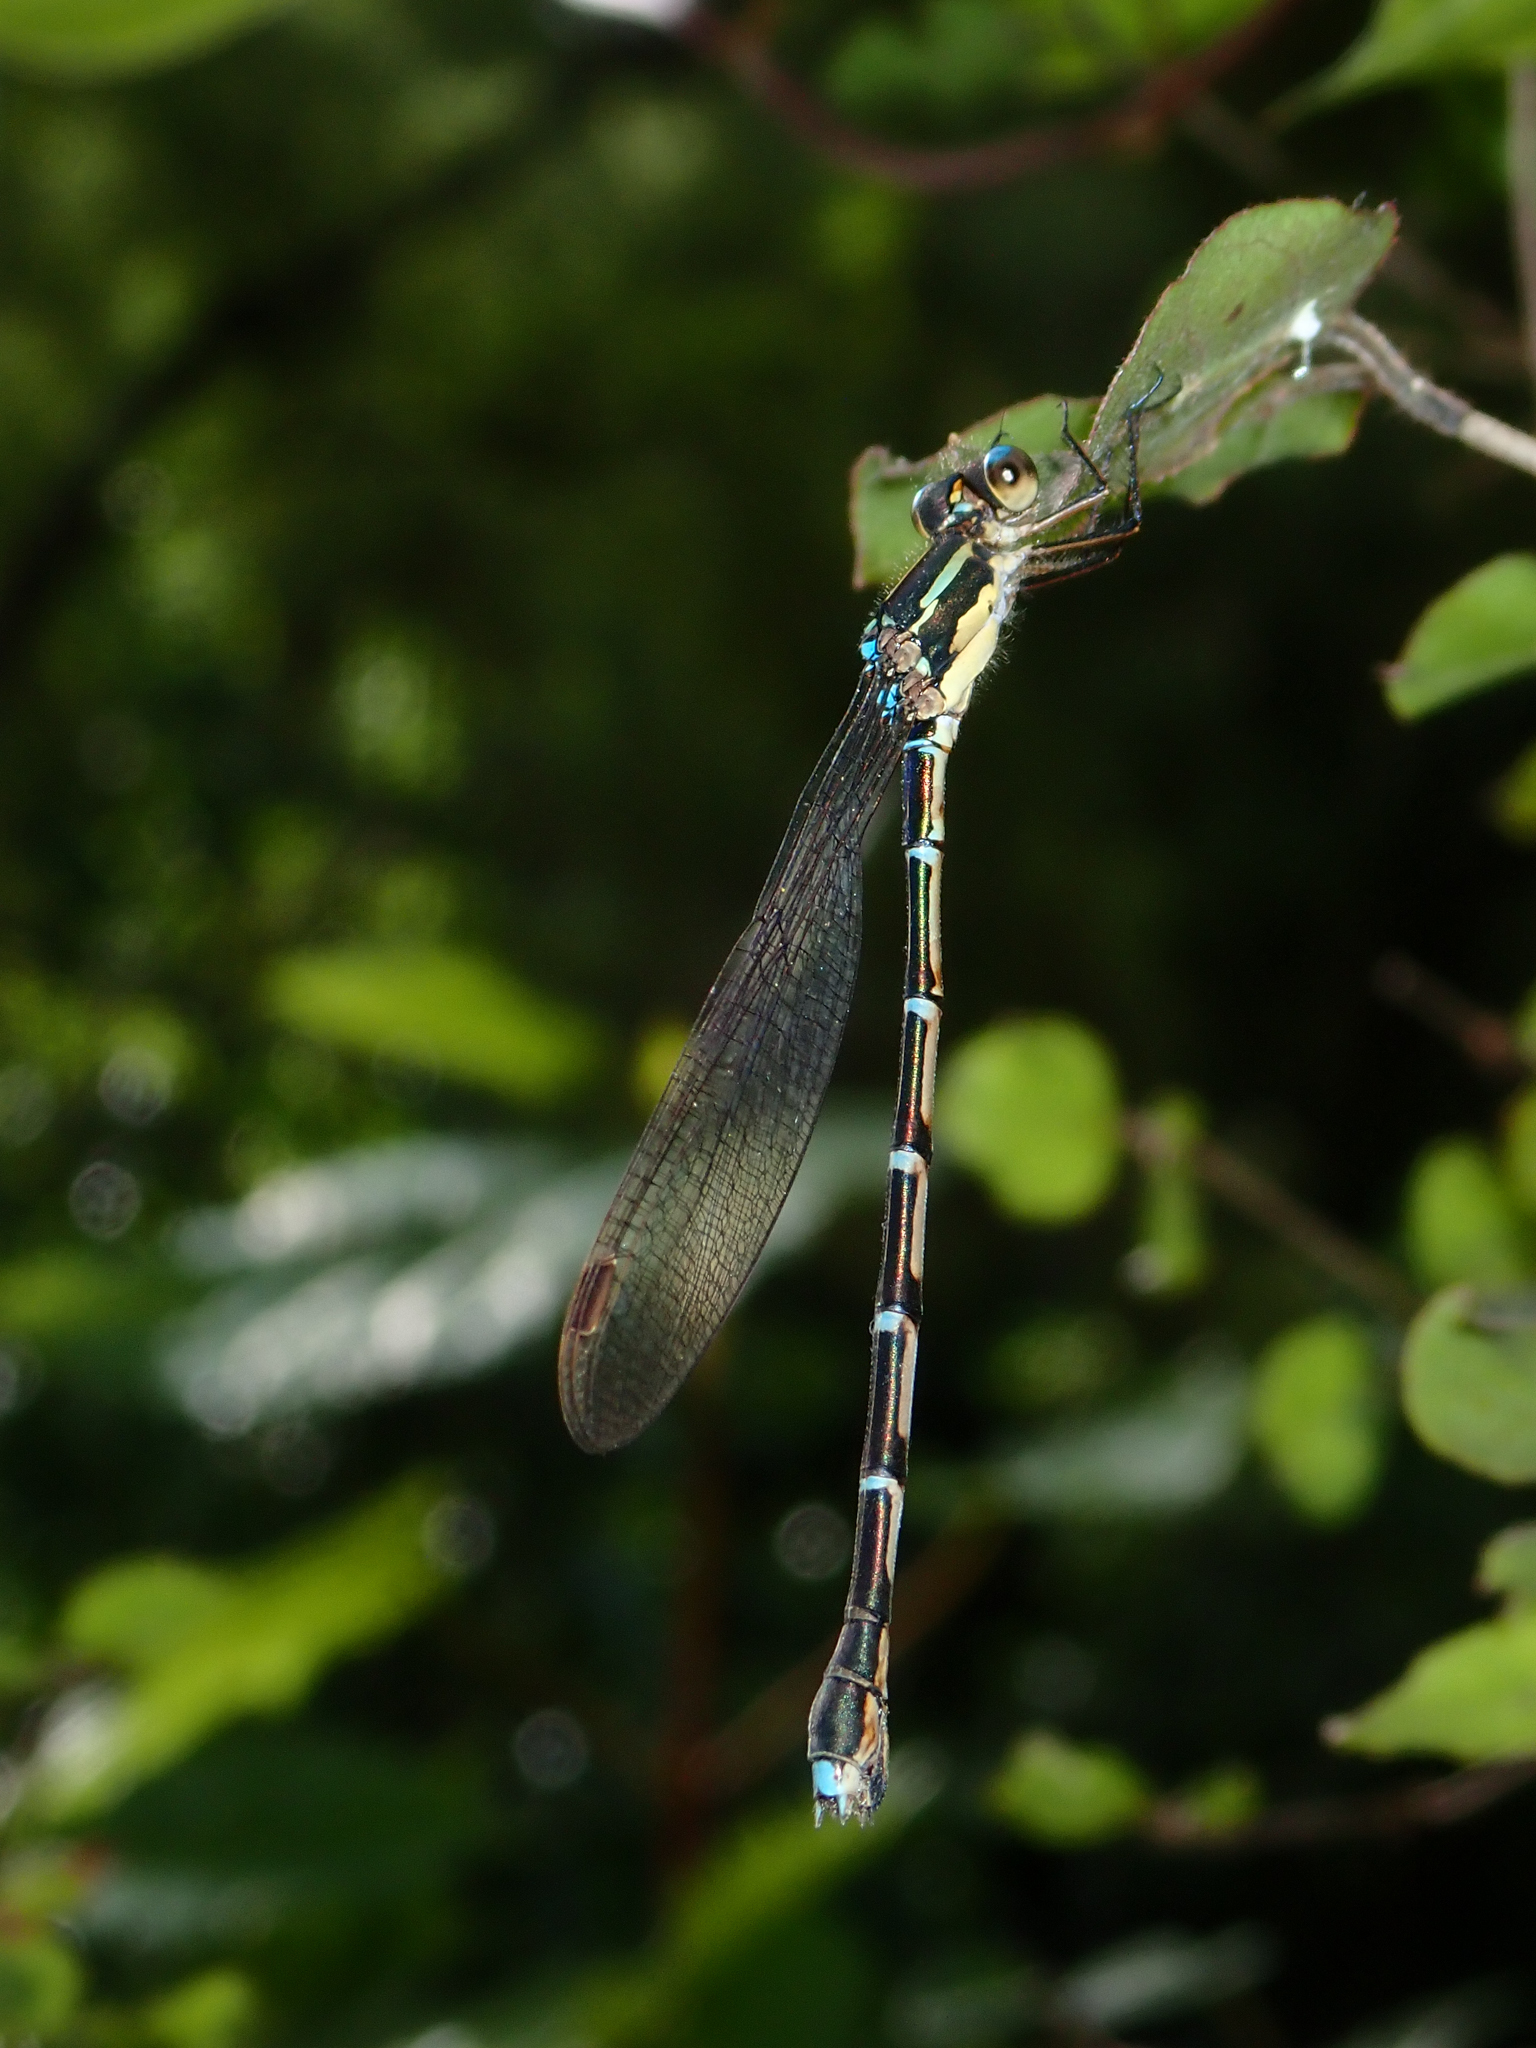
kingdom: Animalia
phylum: Arthropoda
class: Insecta
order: Odonata
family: Lestidae
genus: Austrolestes
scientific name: Austrolestes colensonis
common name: Blue damselfly
